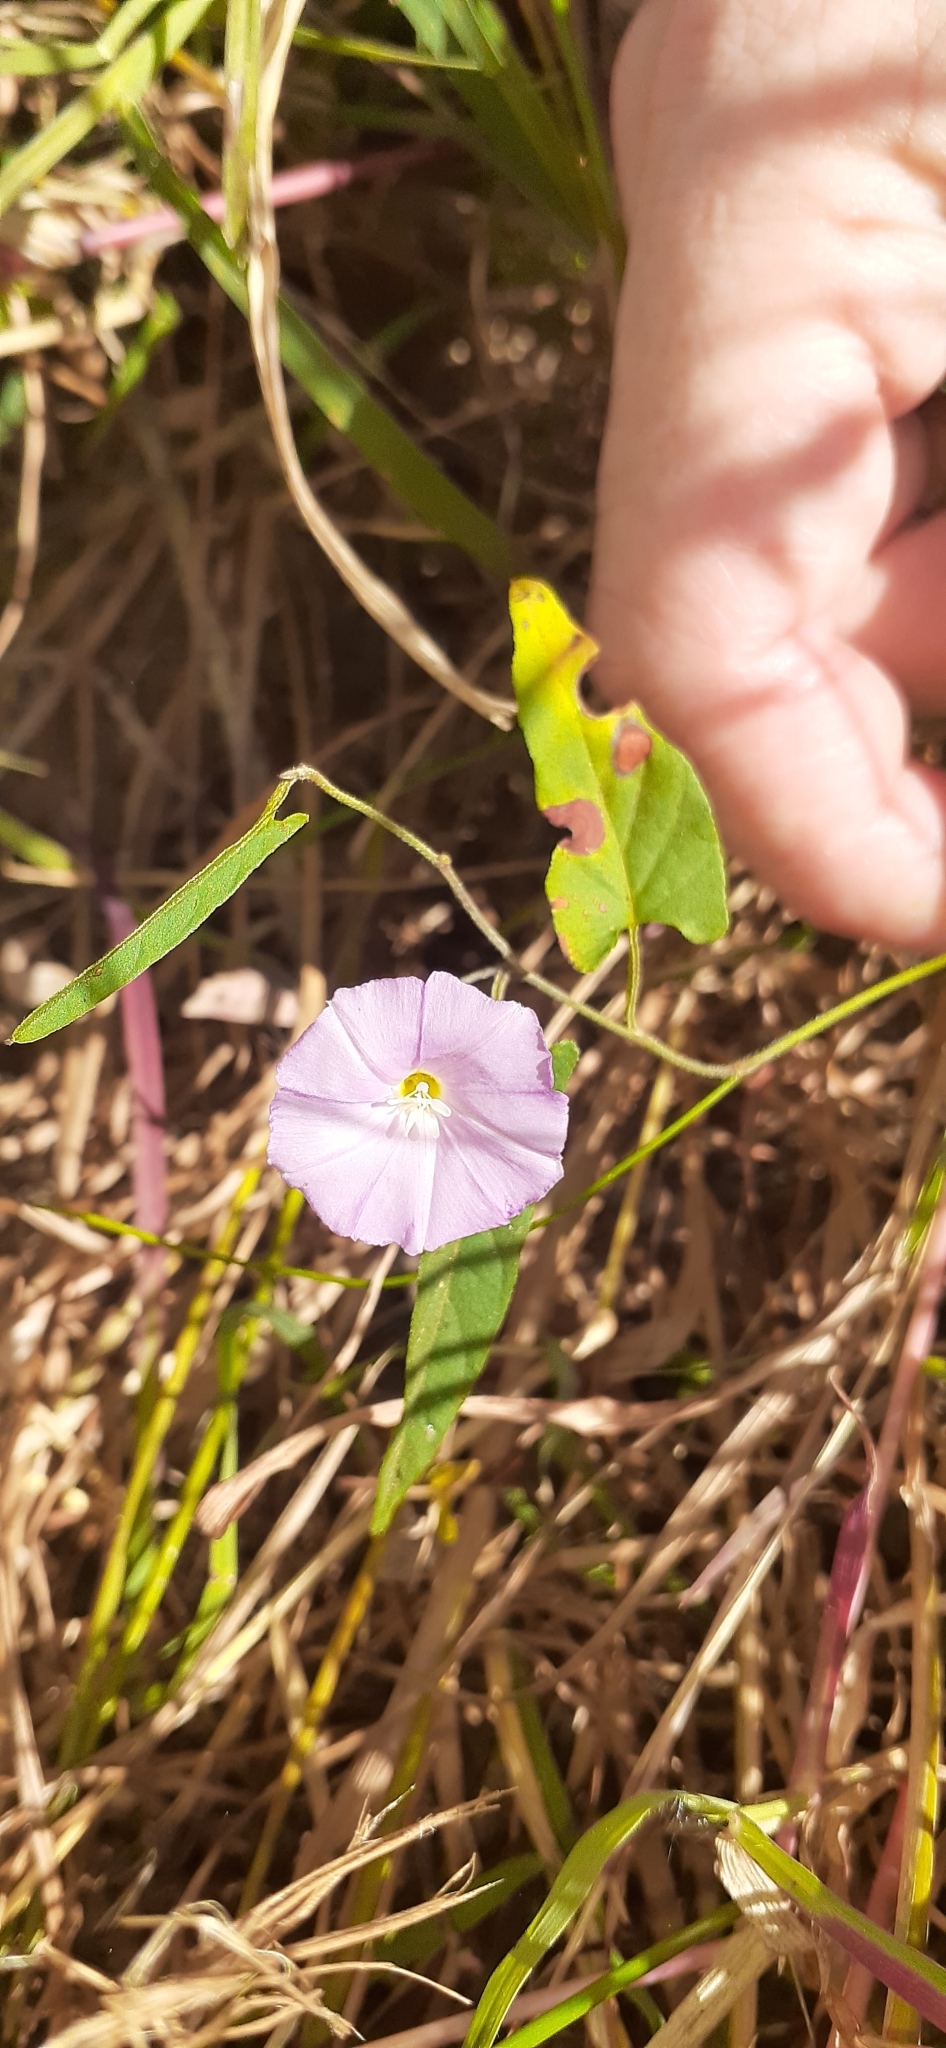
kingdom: Plantae
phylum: Tracheophyta
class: Magnoliopsida
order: Solanales
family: Convolvulaceae
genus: Polymeria
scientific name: Polymeria calycina
